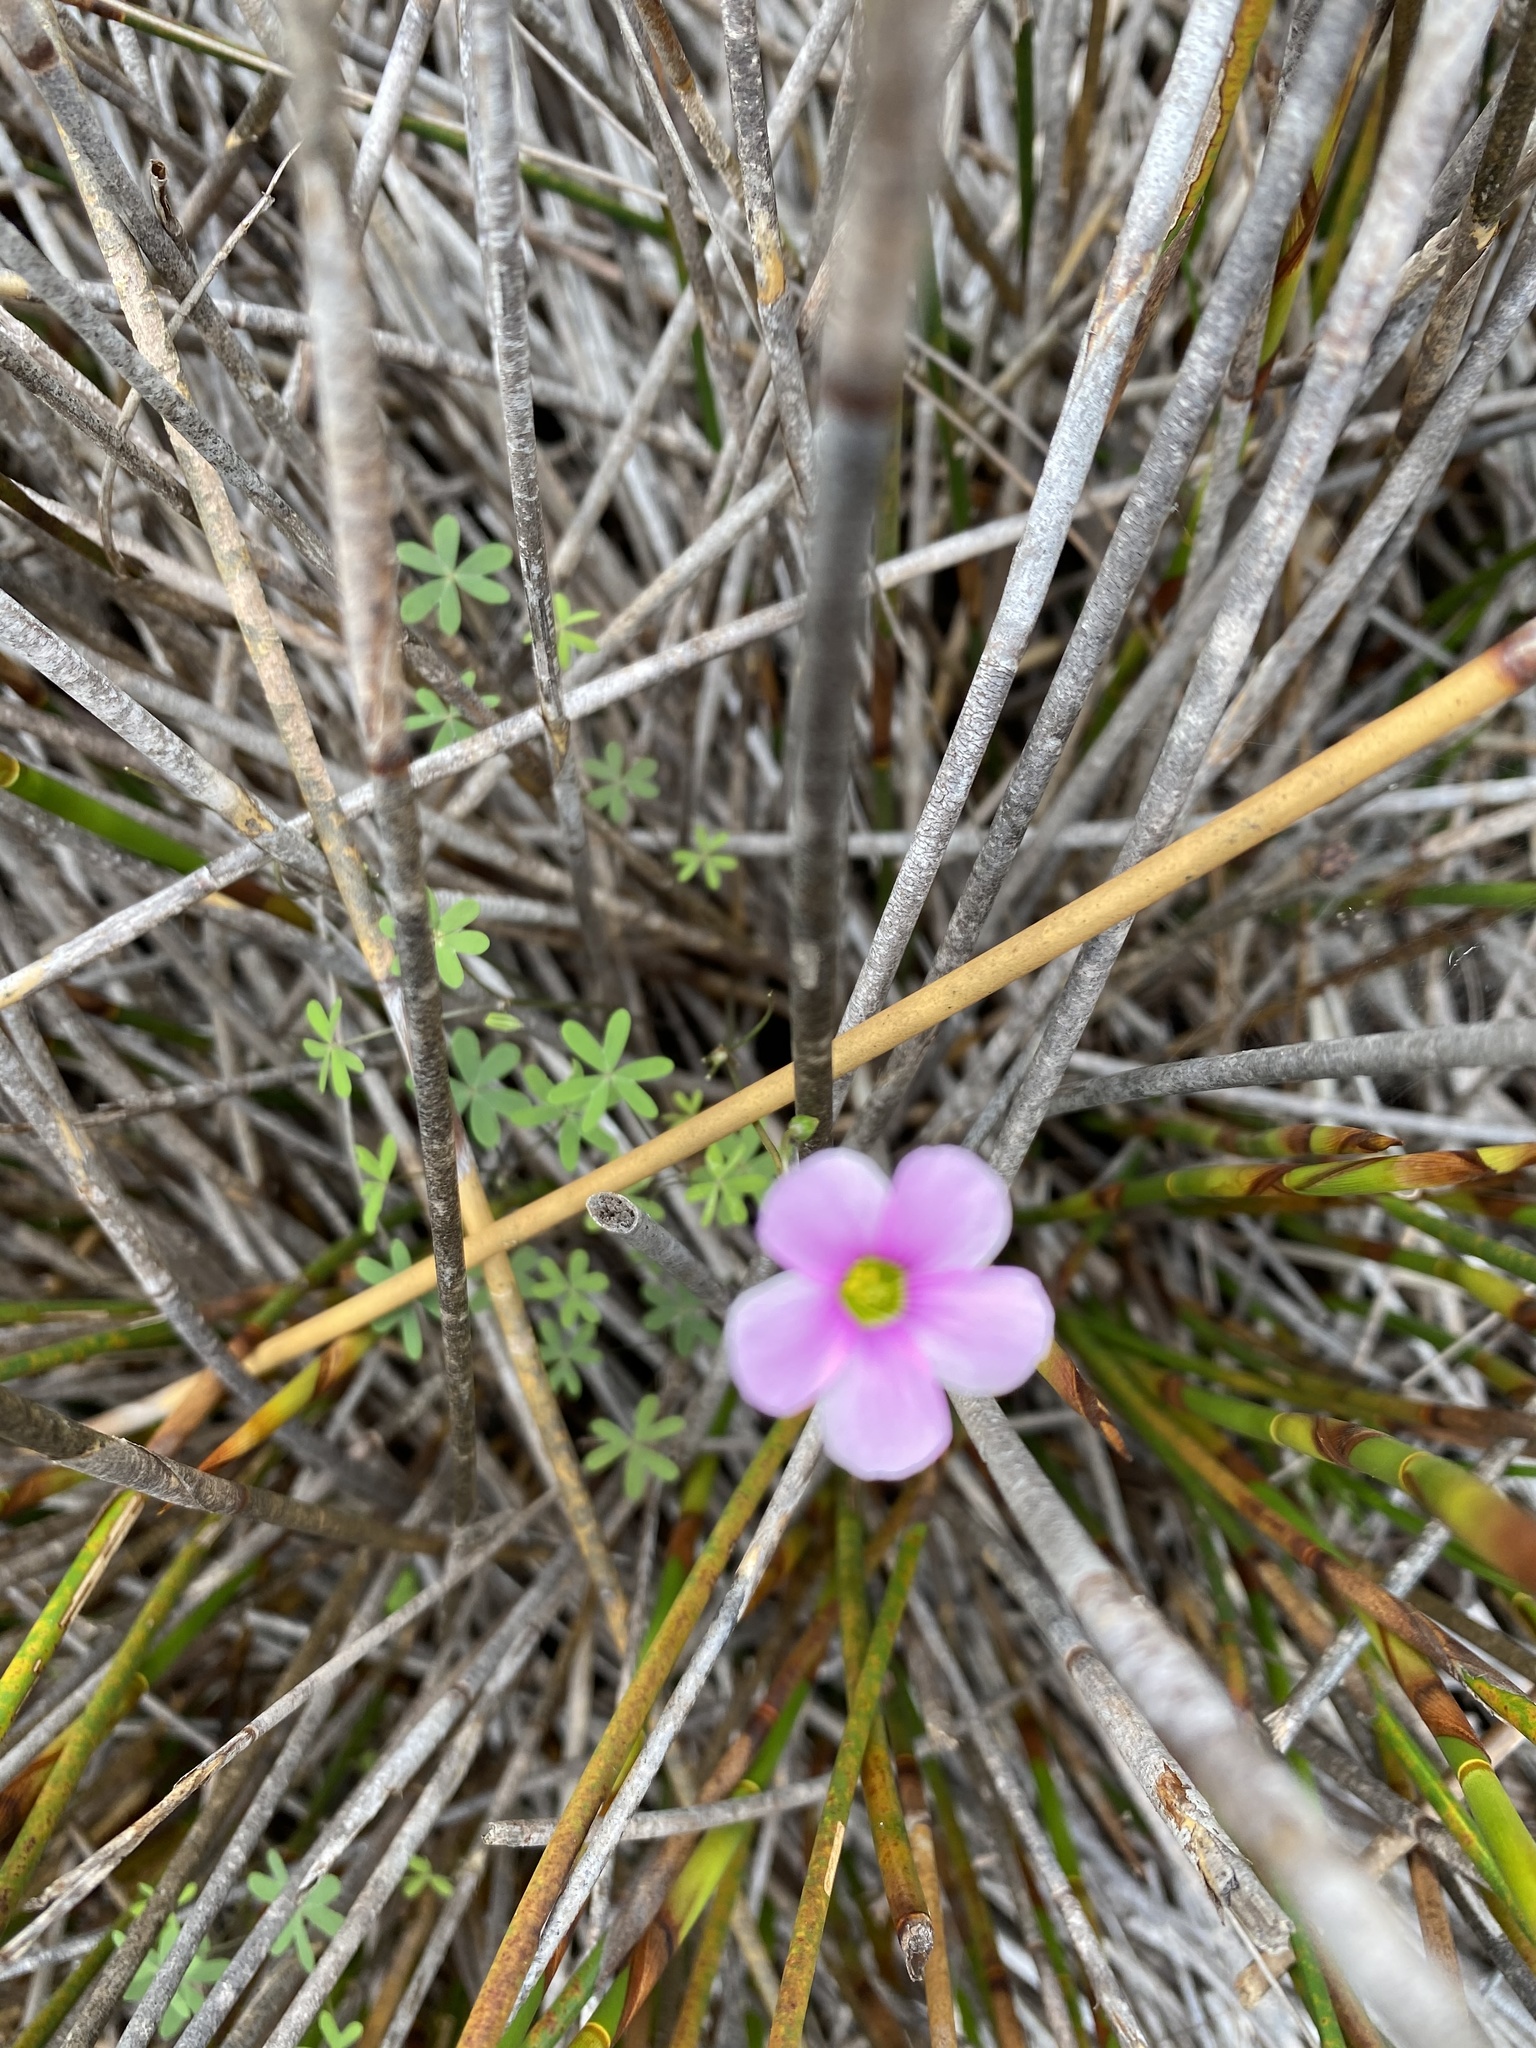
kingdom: Plantae
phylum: Tracheophyta
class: Magnoliopsida
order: Oxalidales
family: Oxalidaceae
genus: Oxalis
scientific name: Oxalis stellata
